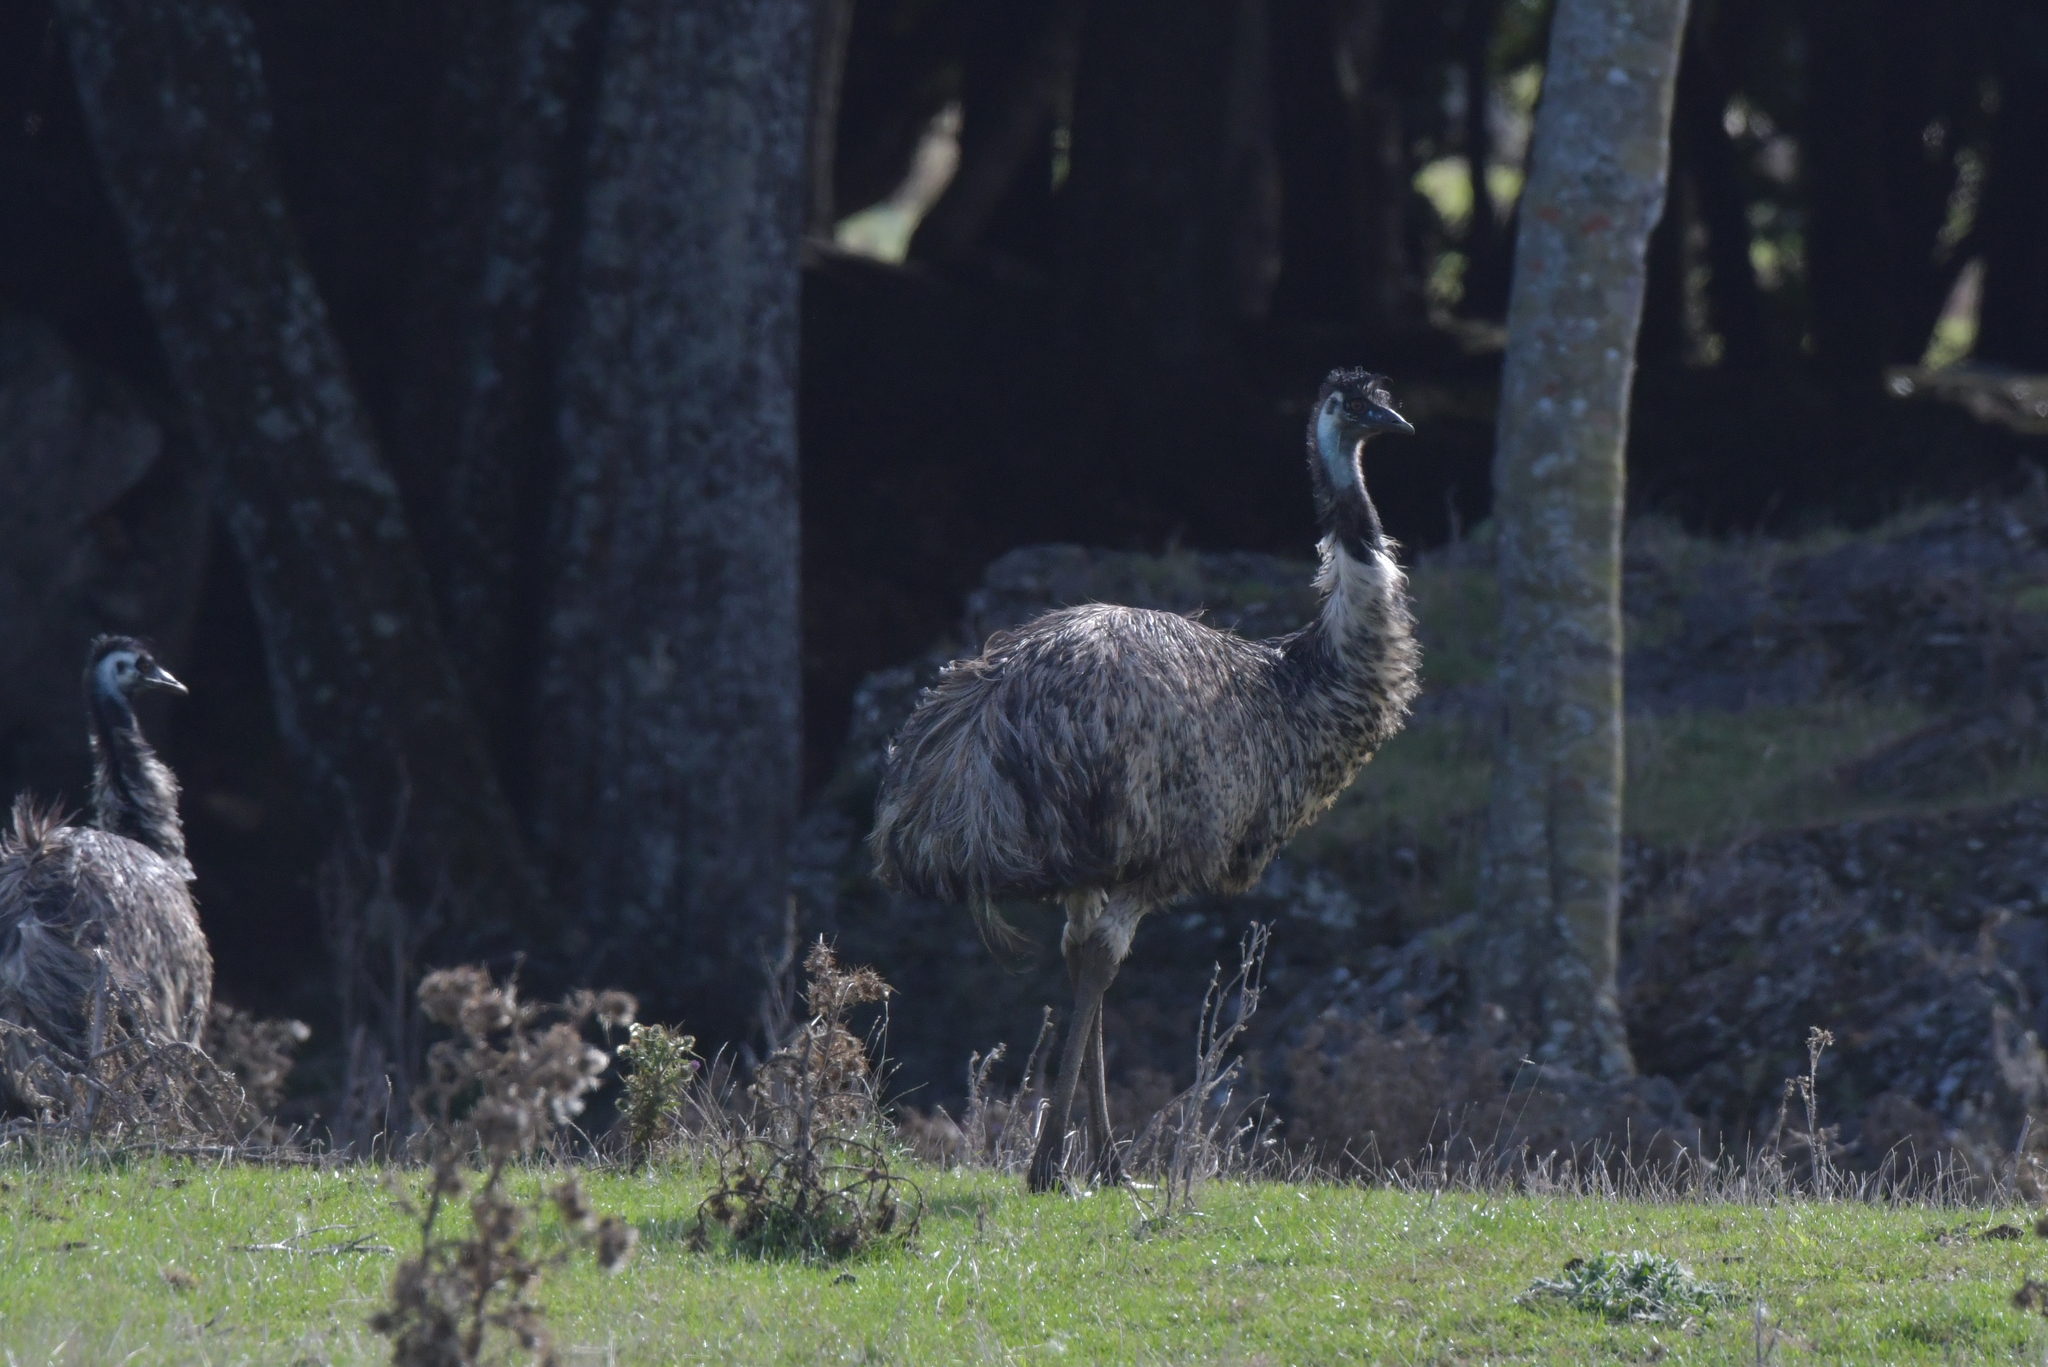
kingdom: Animalia
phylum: Chordata
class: Aves
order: Casuariiformes
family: Dromaiidae
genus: Dromaius
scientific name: Dromaius novaehollandiae
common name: Emu
